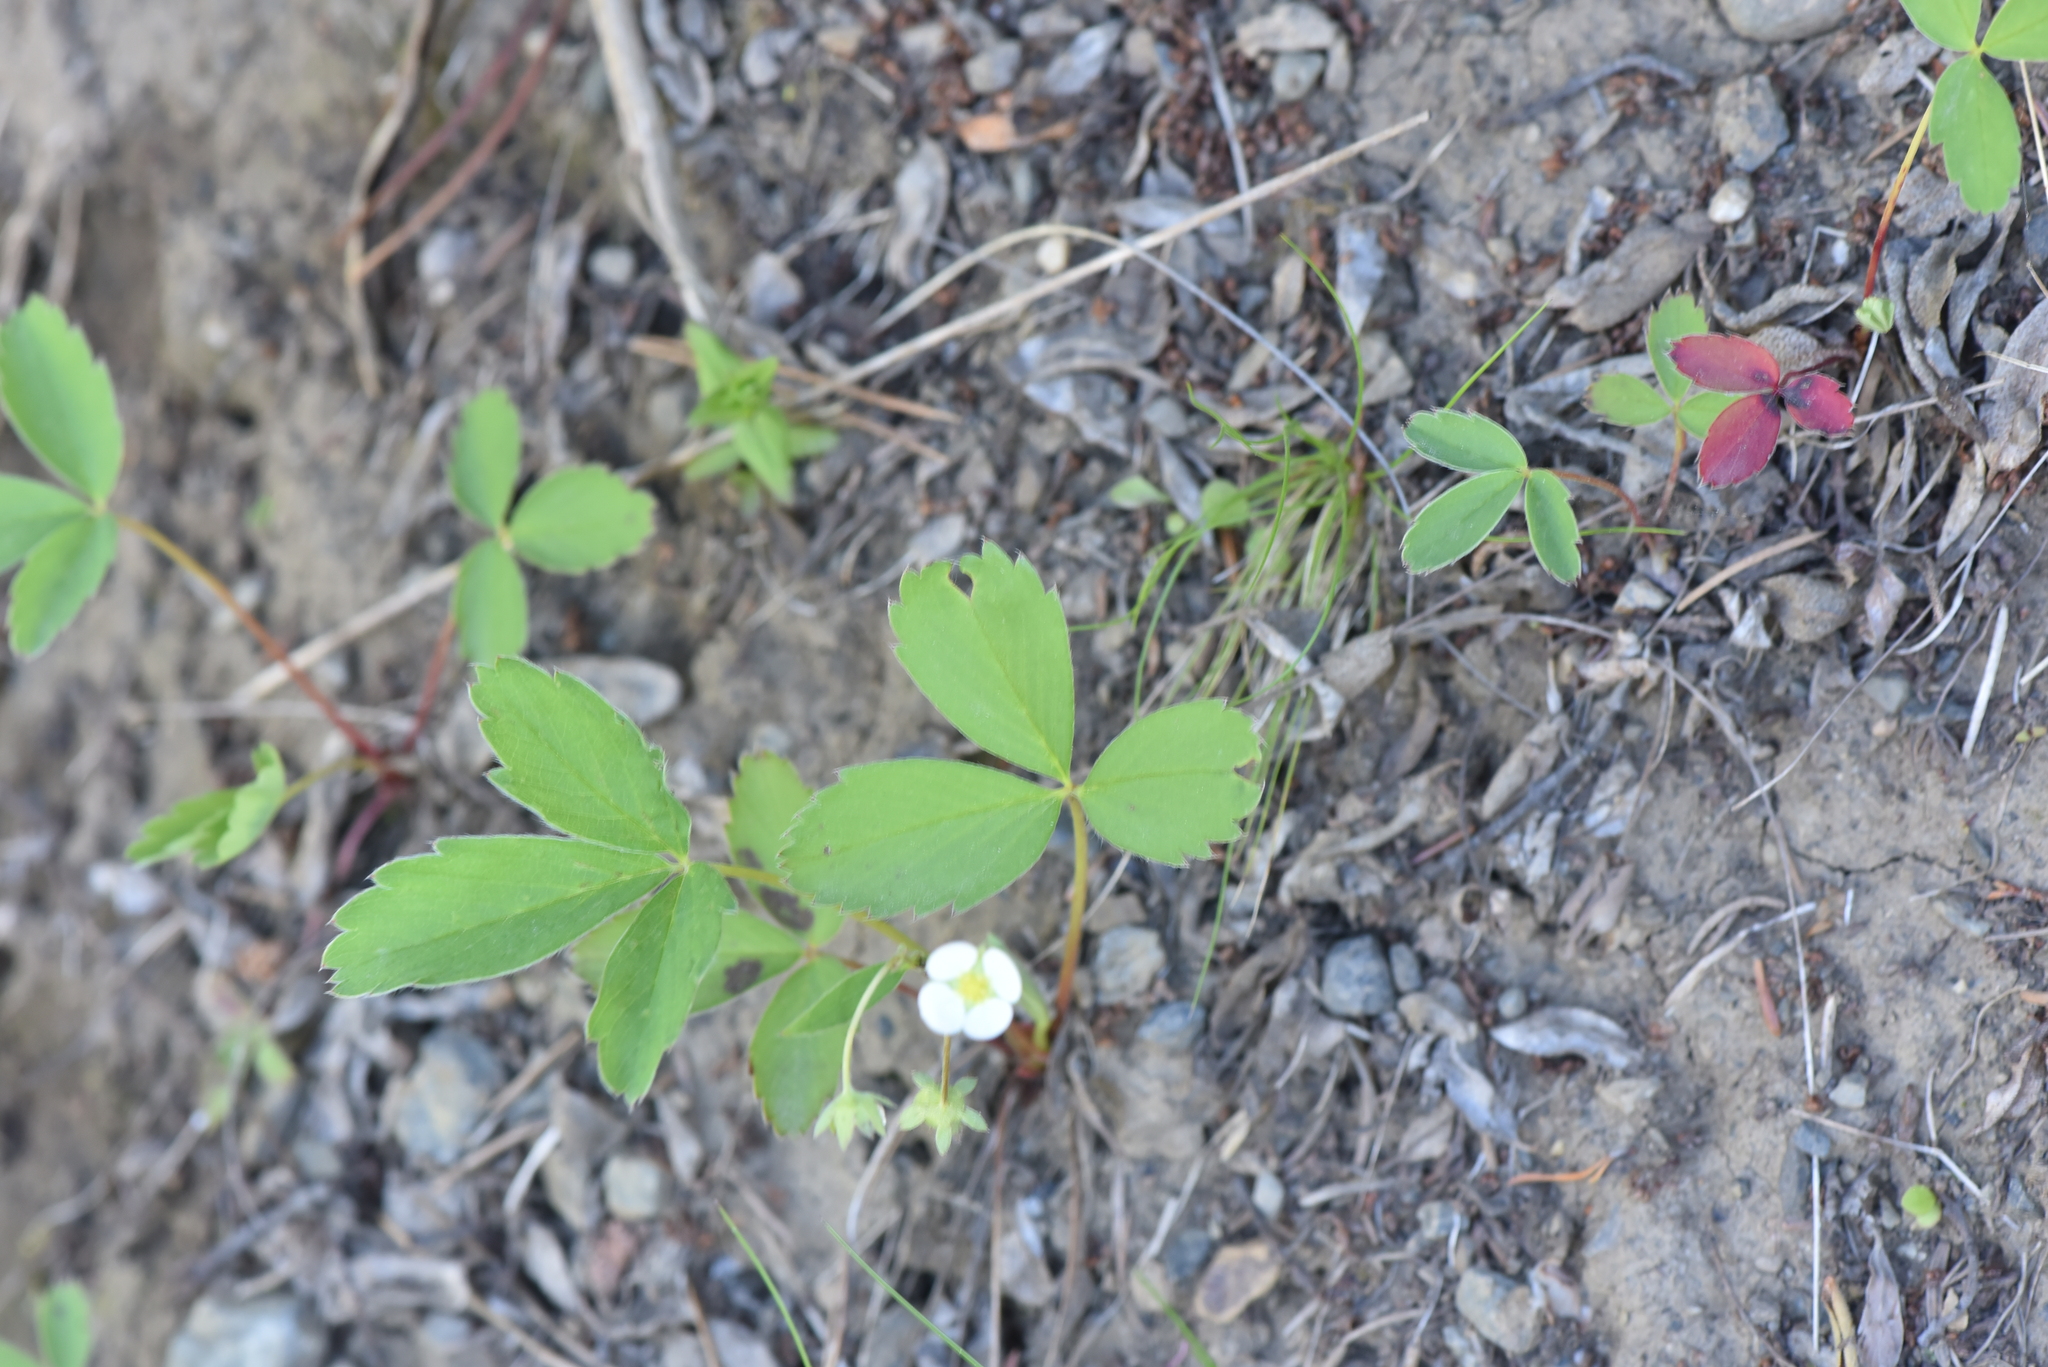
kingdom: Plantae
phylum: Tracheophyta
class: Magnoliopsida
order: Rosales
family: Rosaceae
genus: Fragaria
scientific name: Fragaria virginiana
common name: Thickleaved wild strawberry
